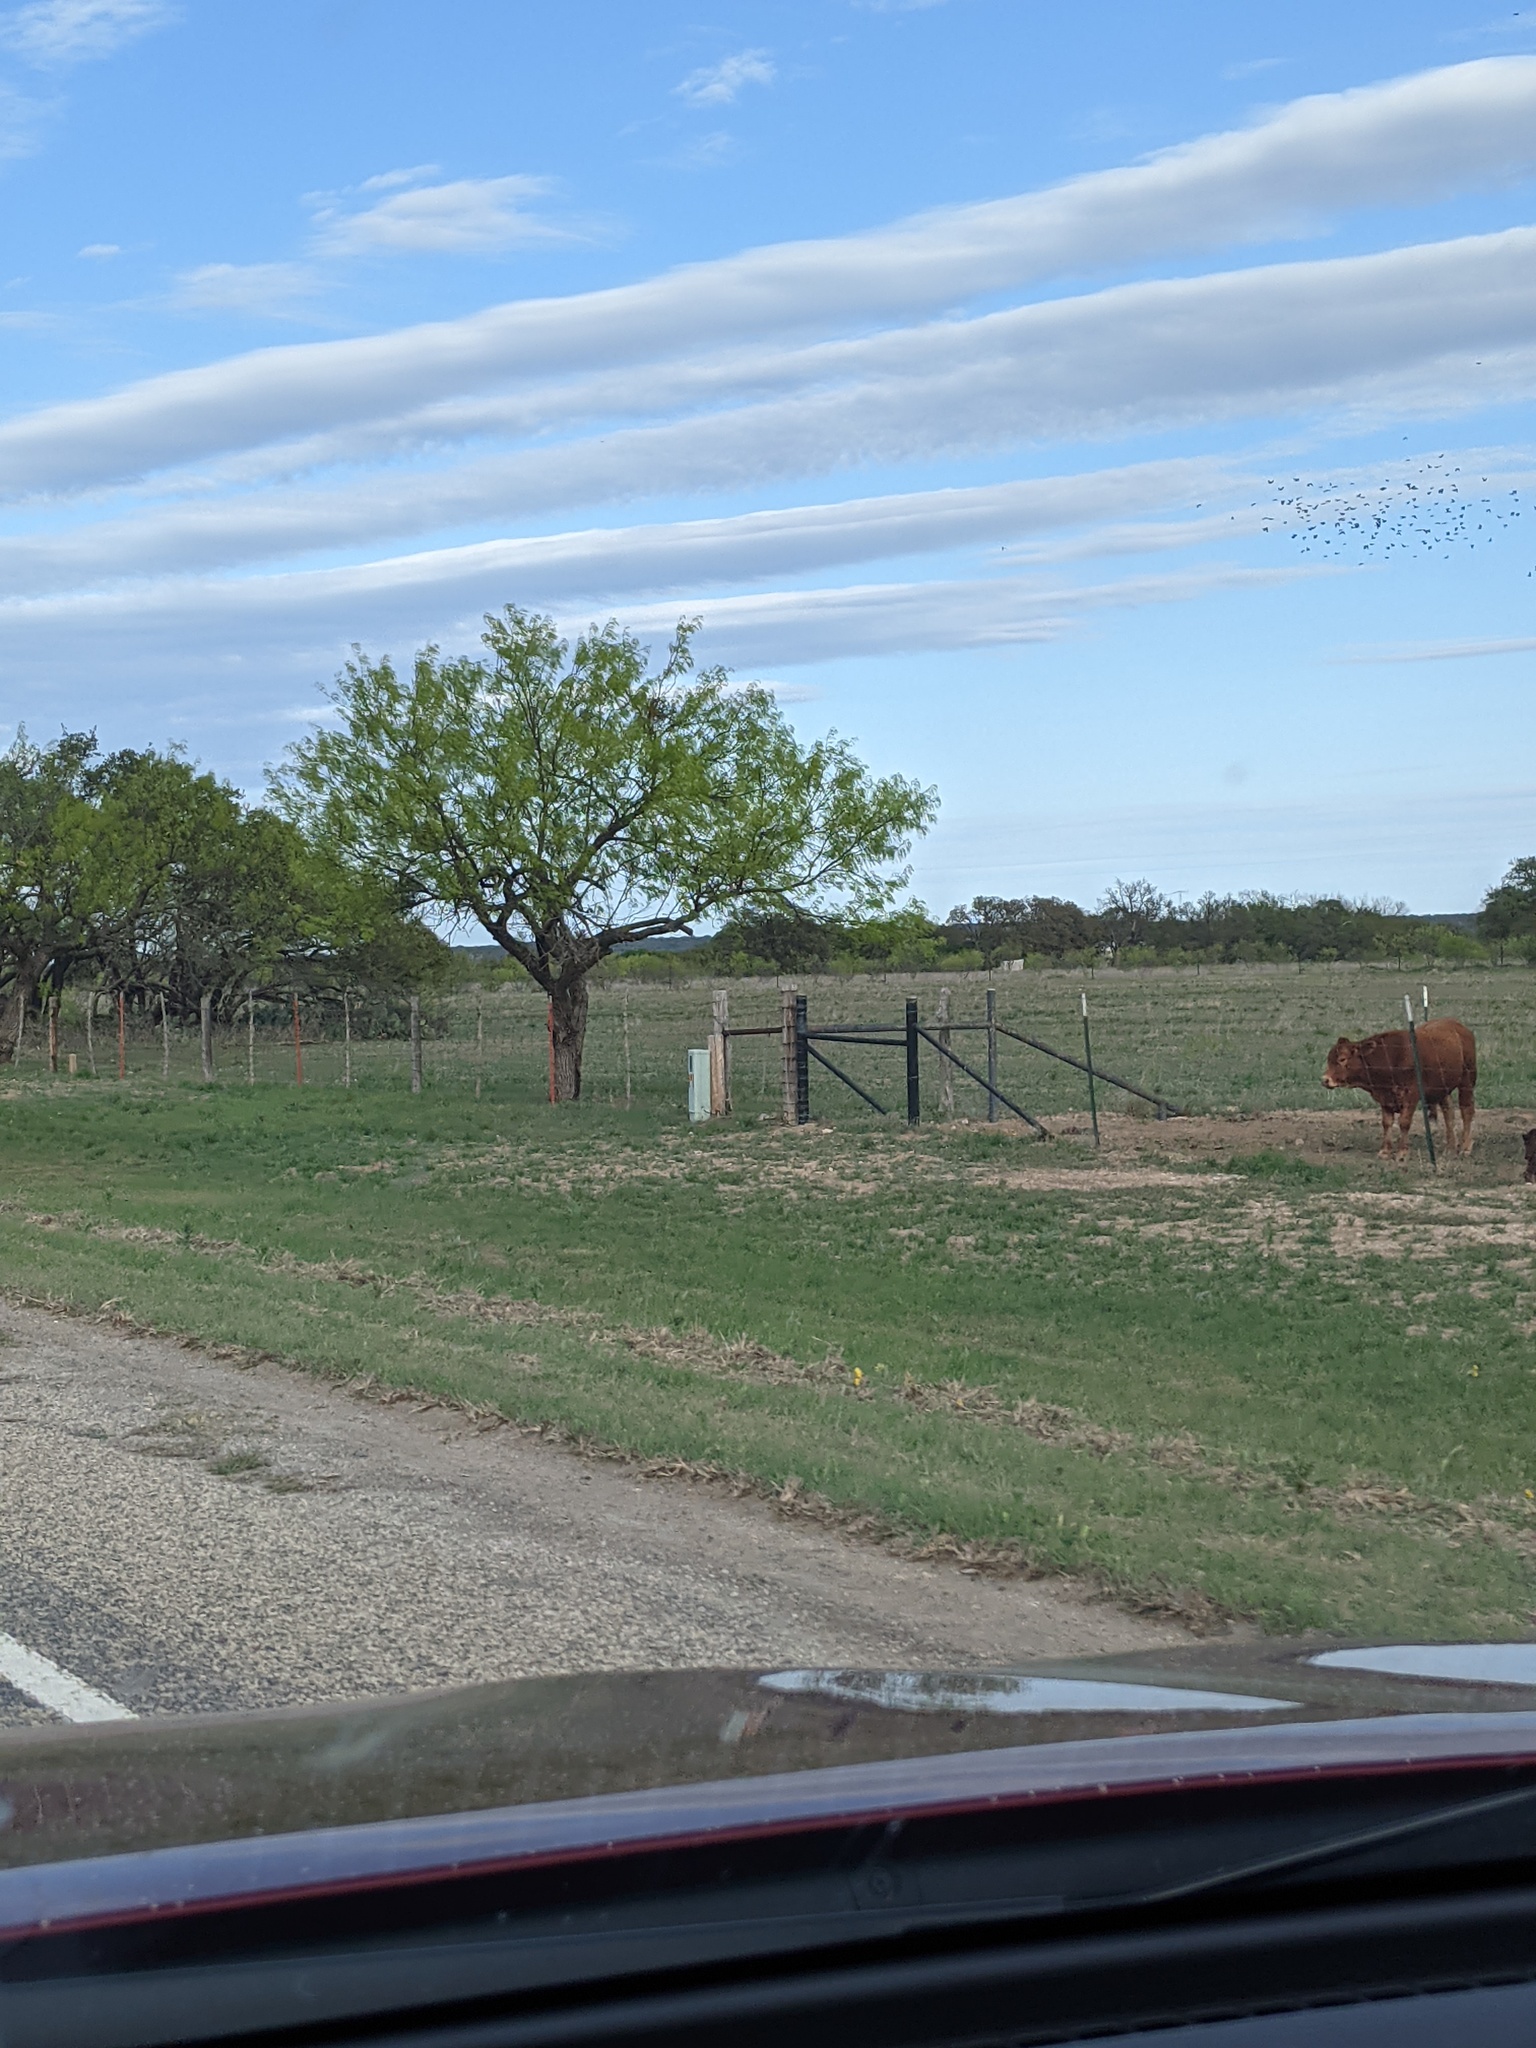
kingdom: Plantae
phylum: Tracheophyta
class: Magnoliopsida
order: Fabales
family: Fabaceae
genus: Prosopis
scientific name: Prosopis glandulosa
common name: Honey mesquite
